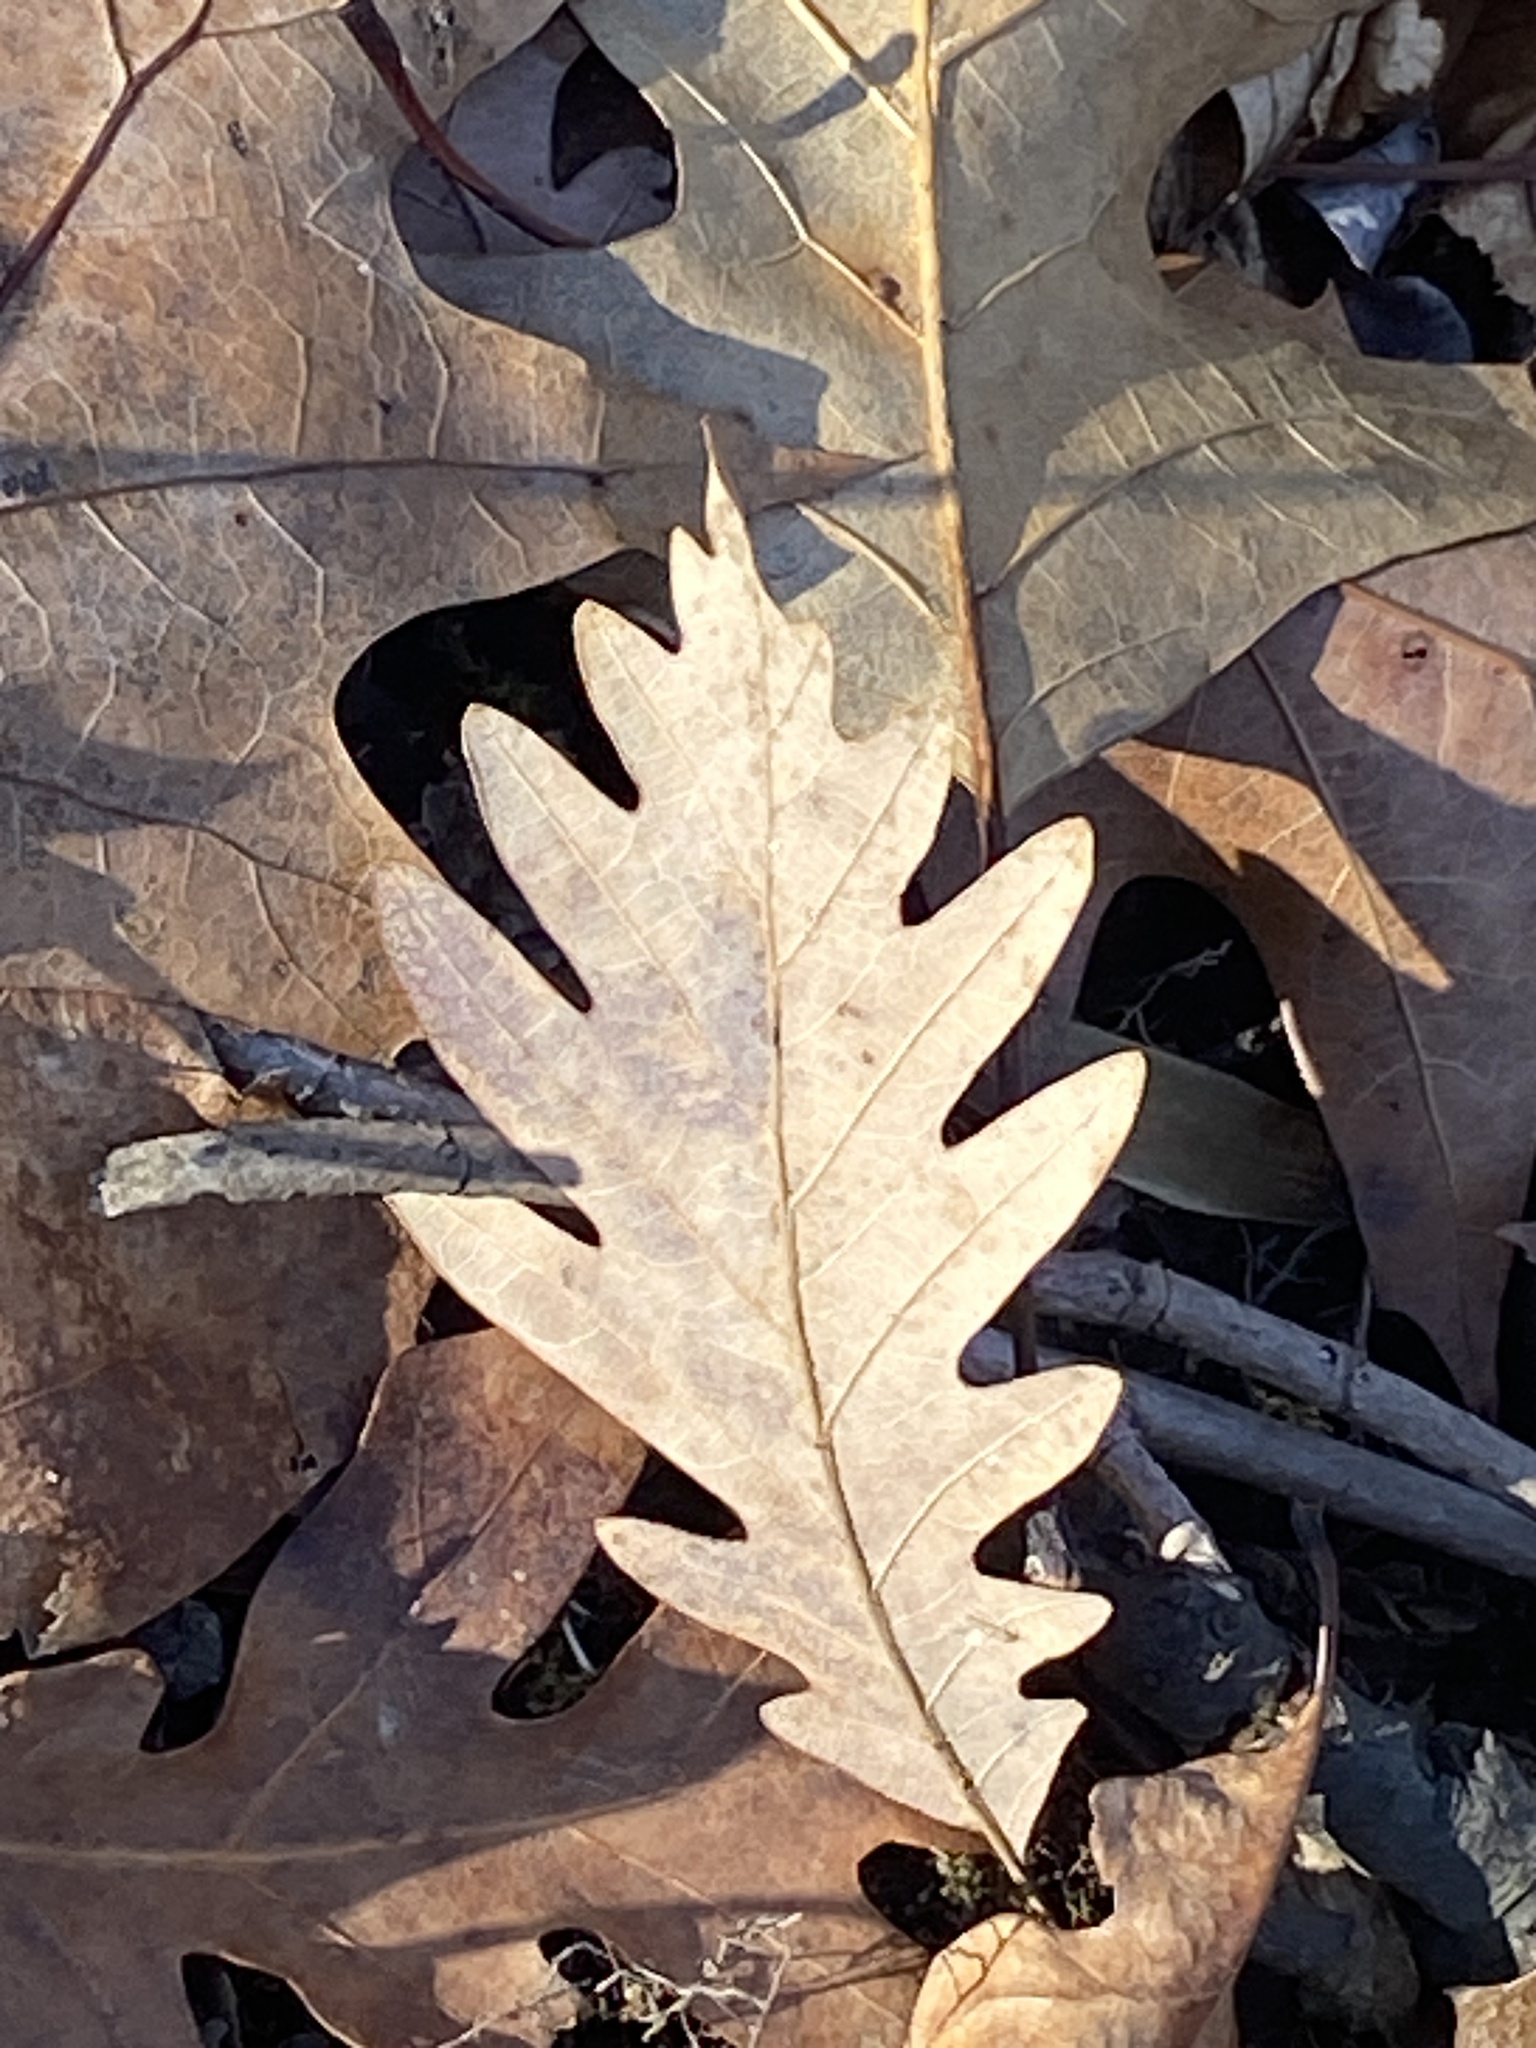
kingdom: Plantae
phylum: Tracheophyta
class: Magnoliopsida
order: Fagales
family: Fagaceae
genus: Quercus
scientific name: Quercus alba
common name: White oak
